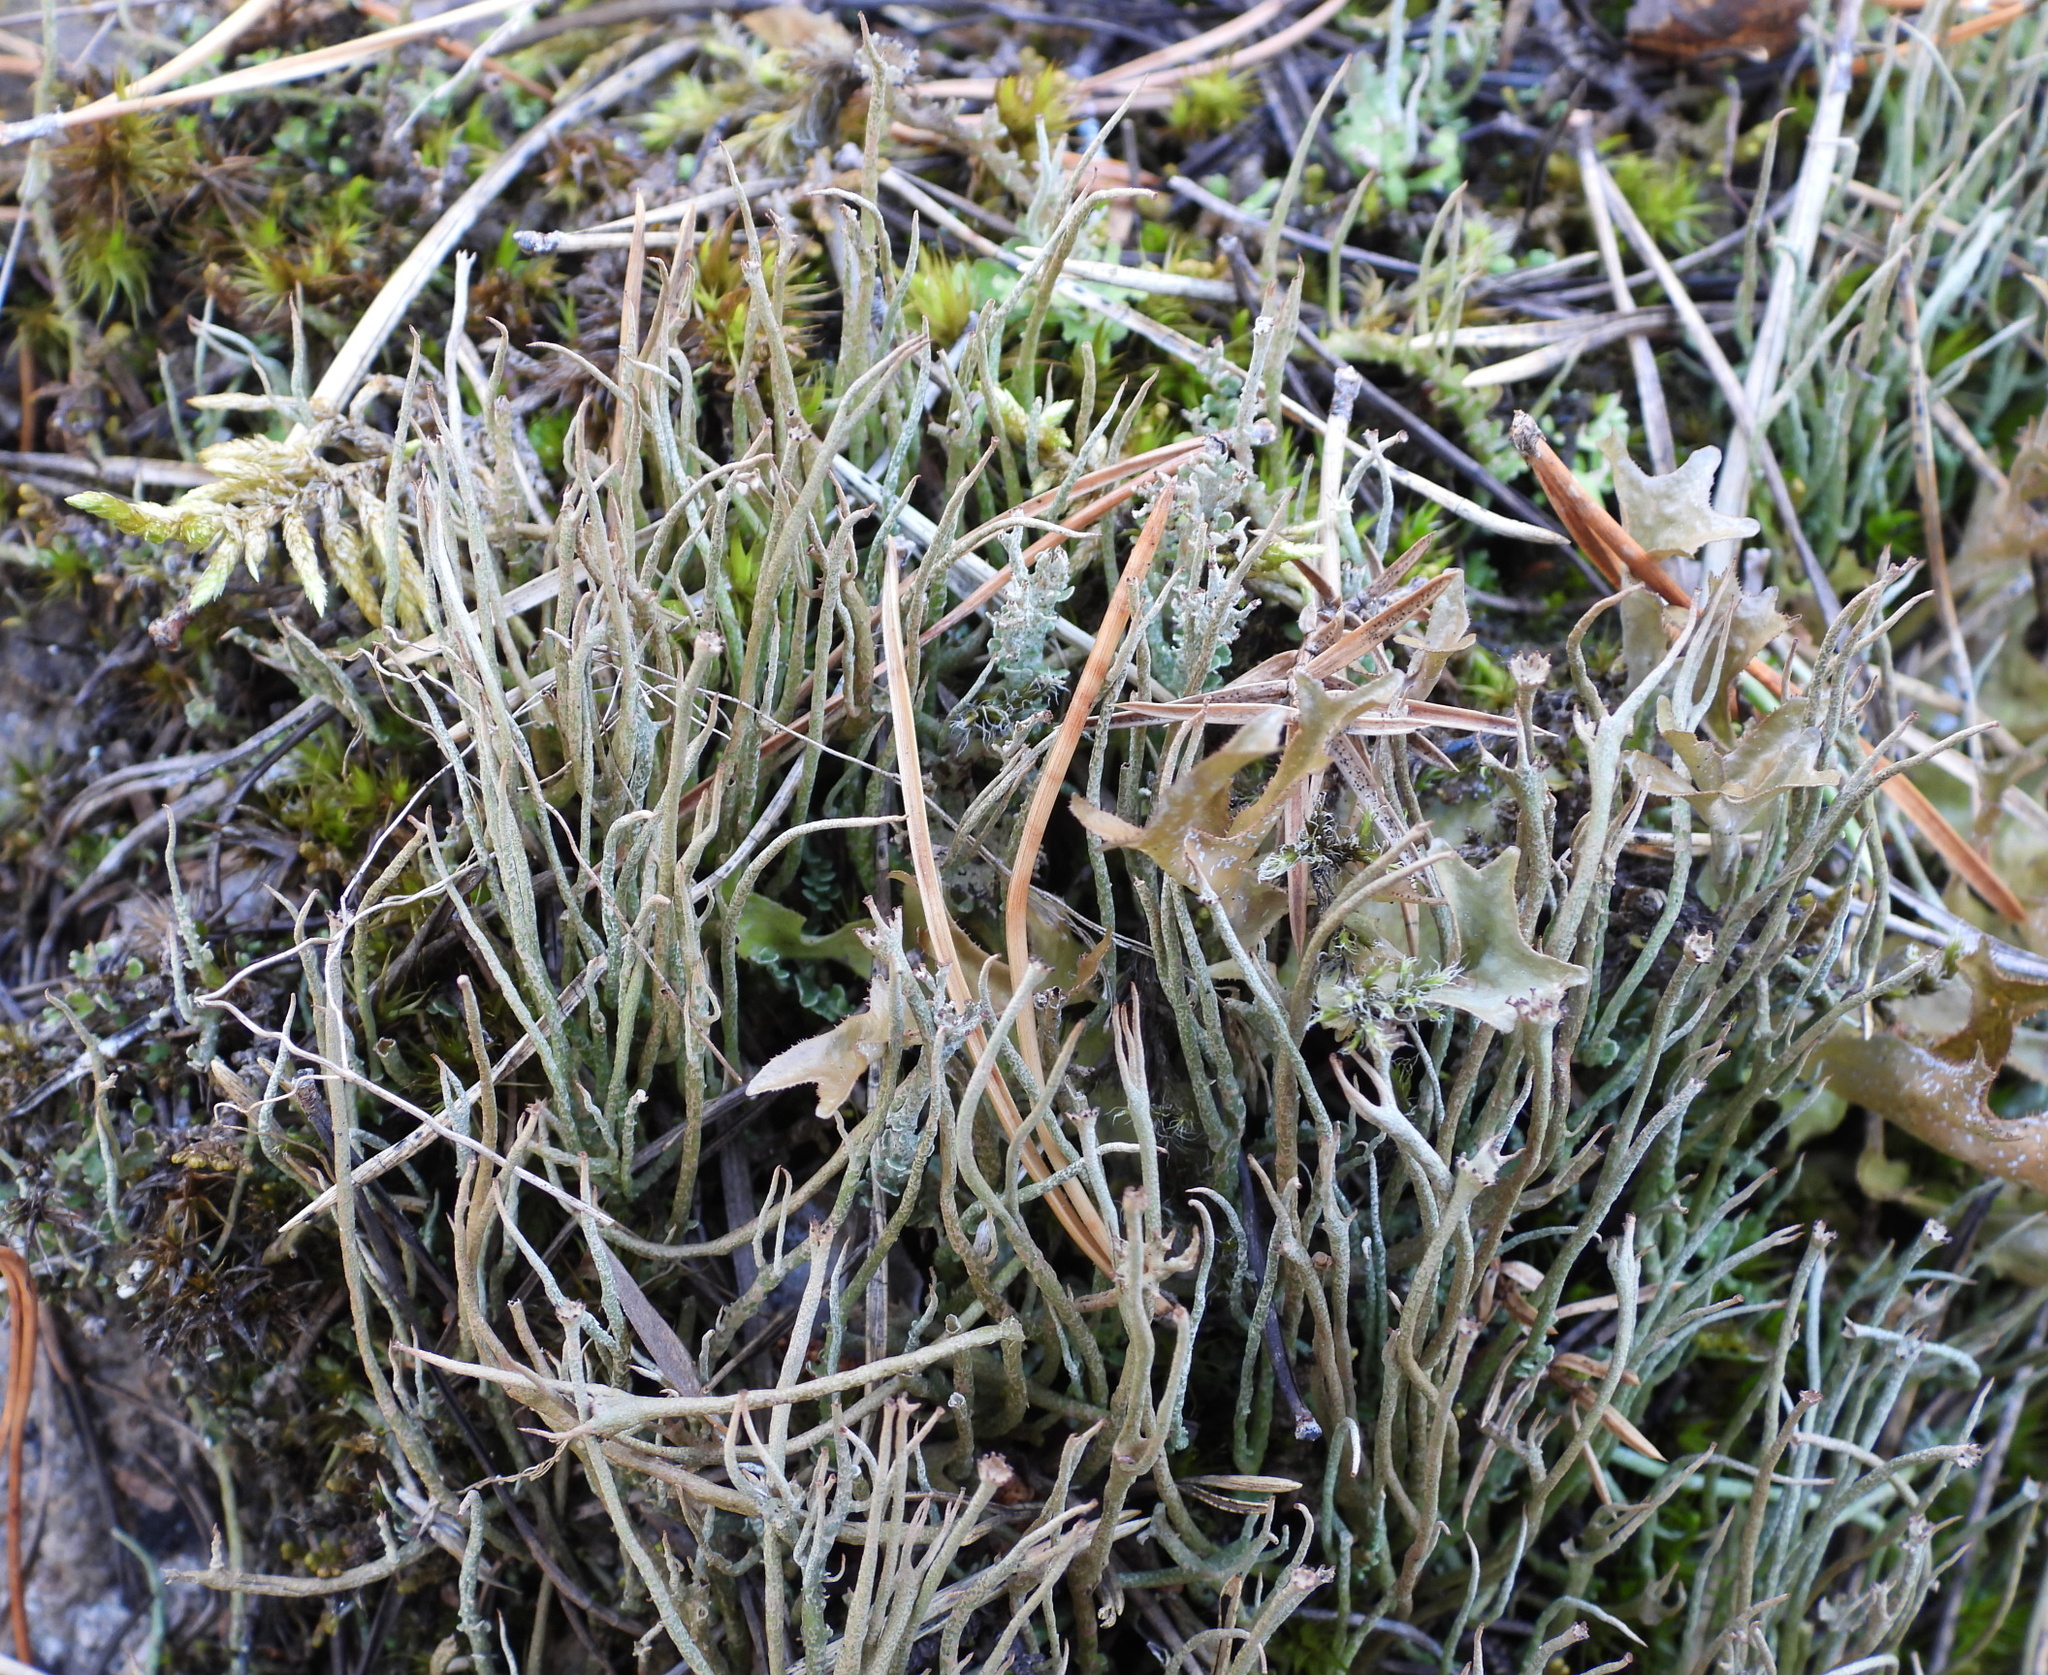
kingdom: Fungi
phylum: Ascomycota
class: Lecanoromycetes
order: Lecanorales
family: Cladoniaceae
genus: Cladonia
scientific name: Cladonia gracilis
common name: Smooth clad lichen
